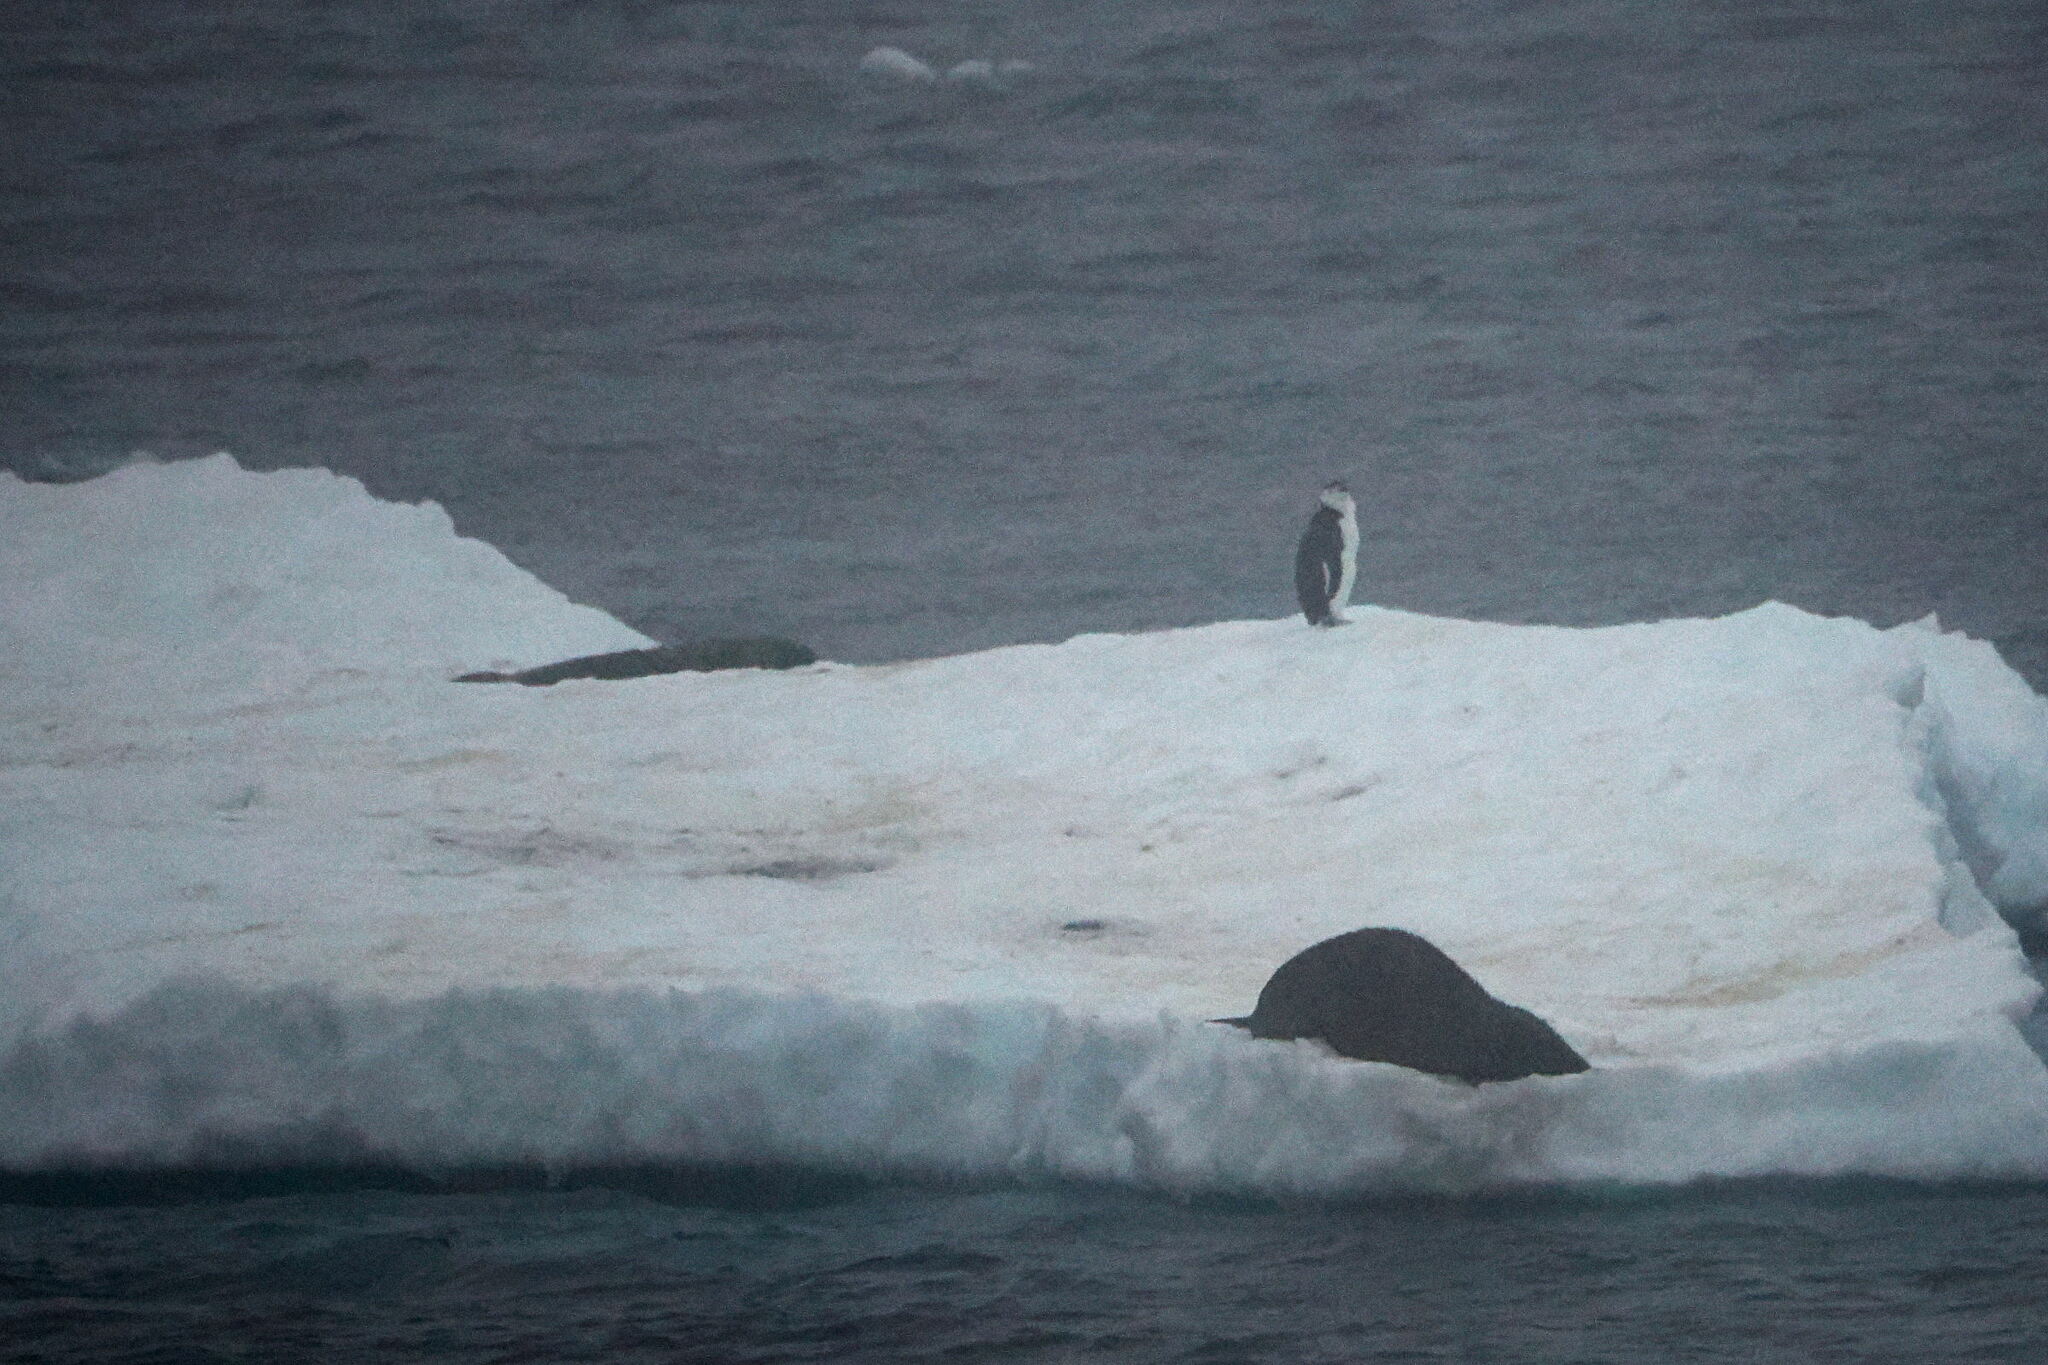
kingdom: Animalia
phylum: Chordata
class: Aves
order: Sphenisciformes
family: Spheniscidae
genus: Pygoscelis
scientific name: Pygoscelis antarcticus
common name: Chinstrap penguin
